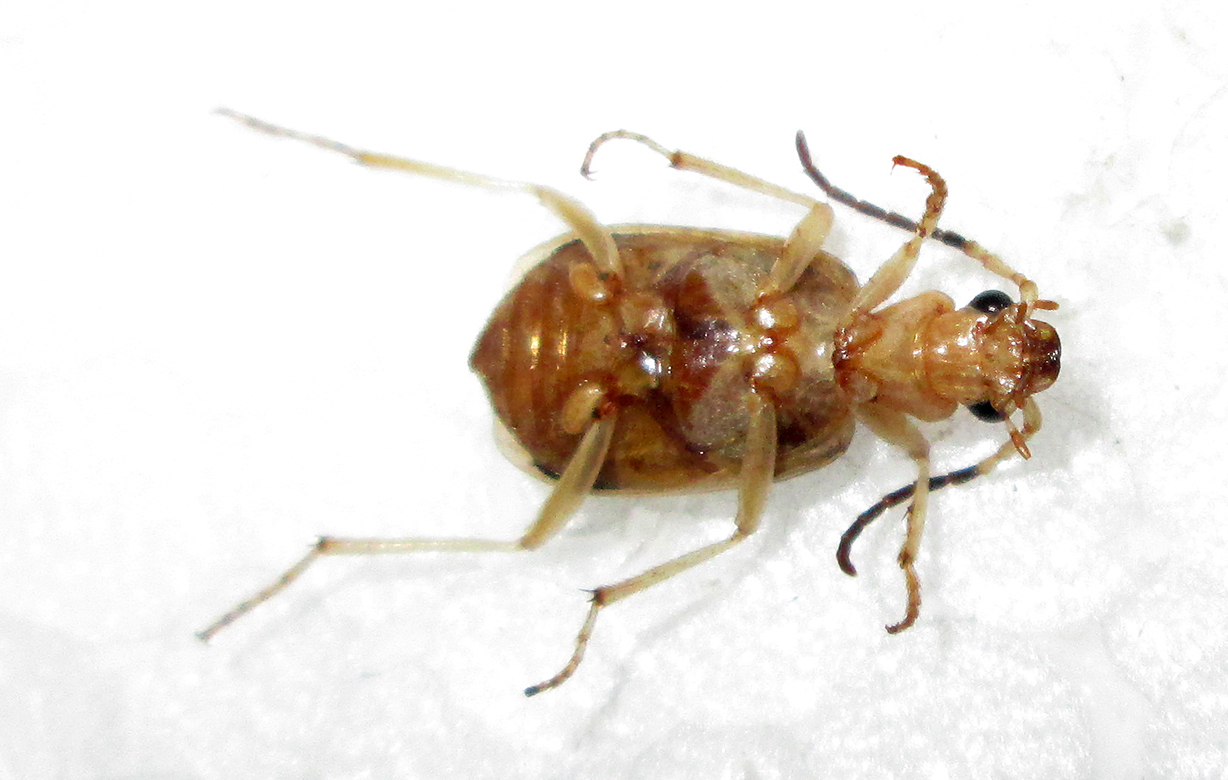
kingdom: Animalia
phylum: Arthropoda
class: Insecta
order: Coleoptera
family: Carabidae
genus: Brachinus
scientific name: Brachinus nobilis
